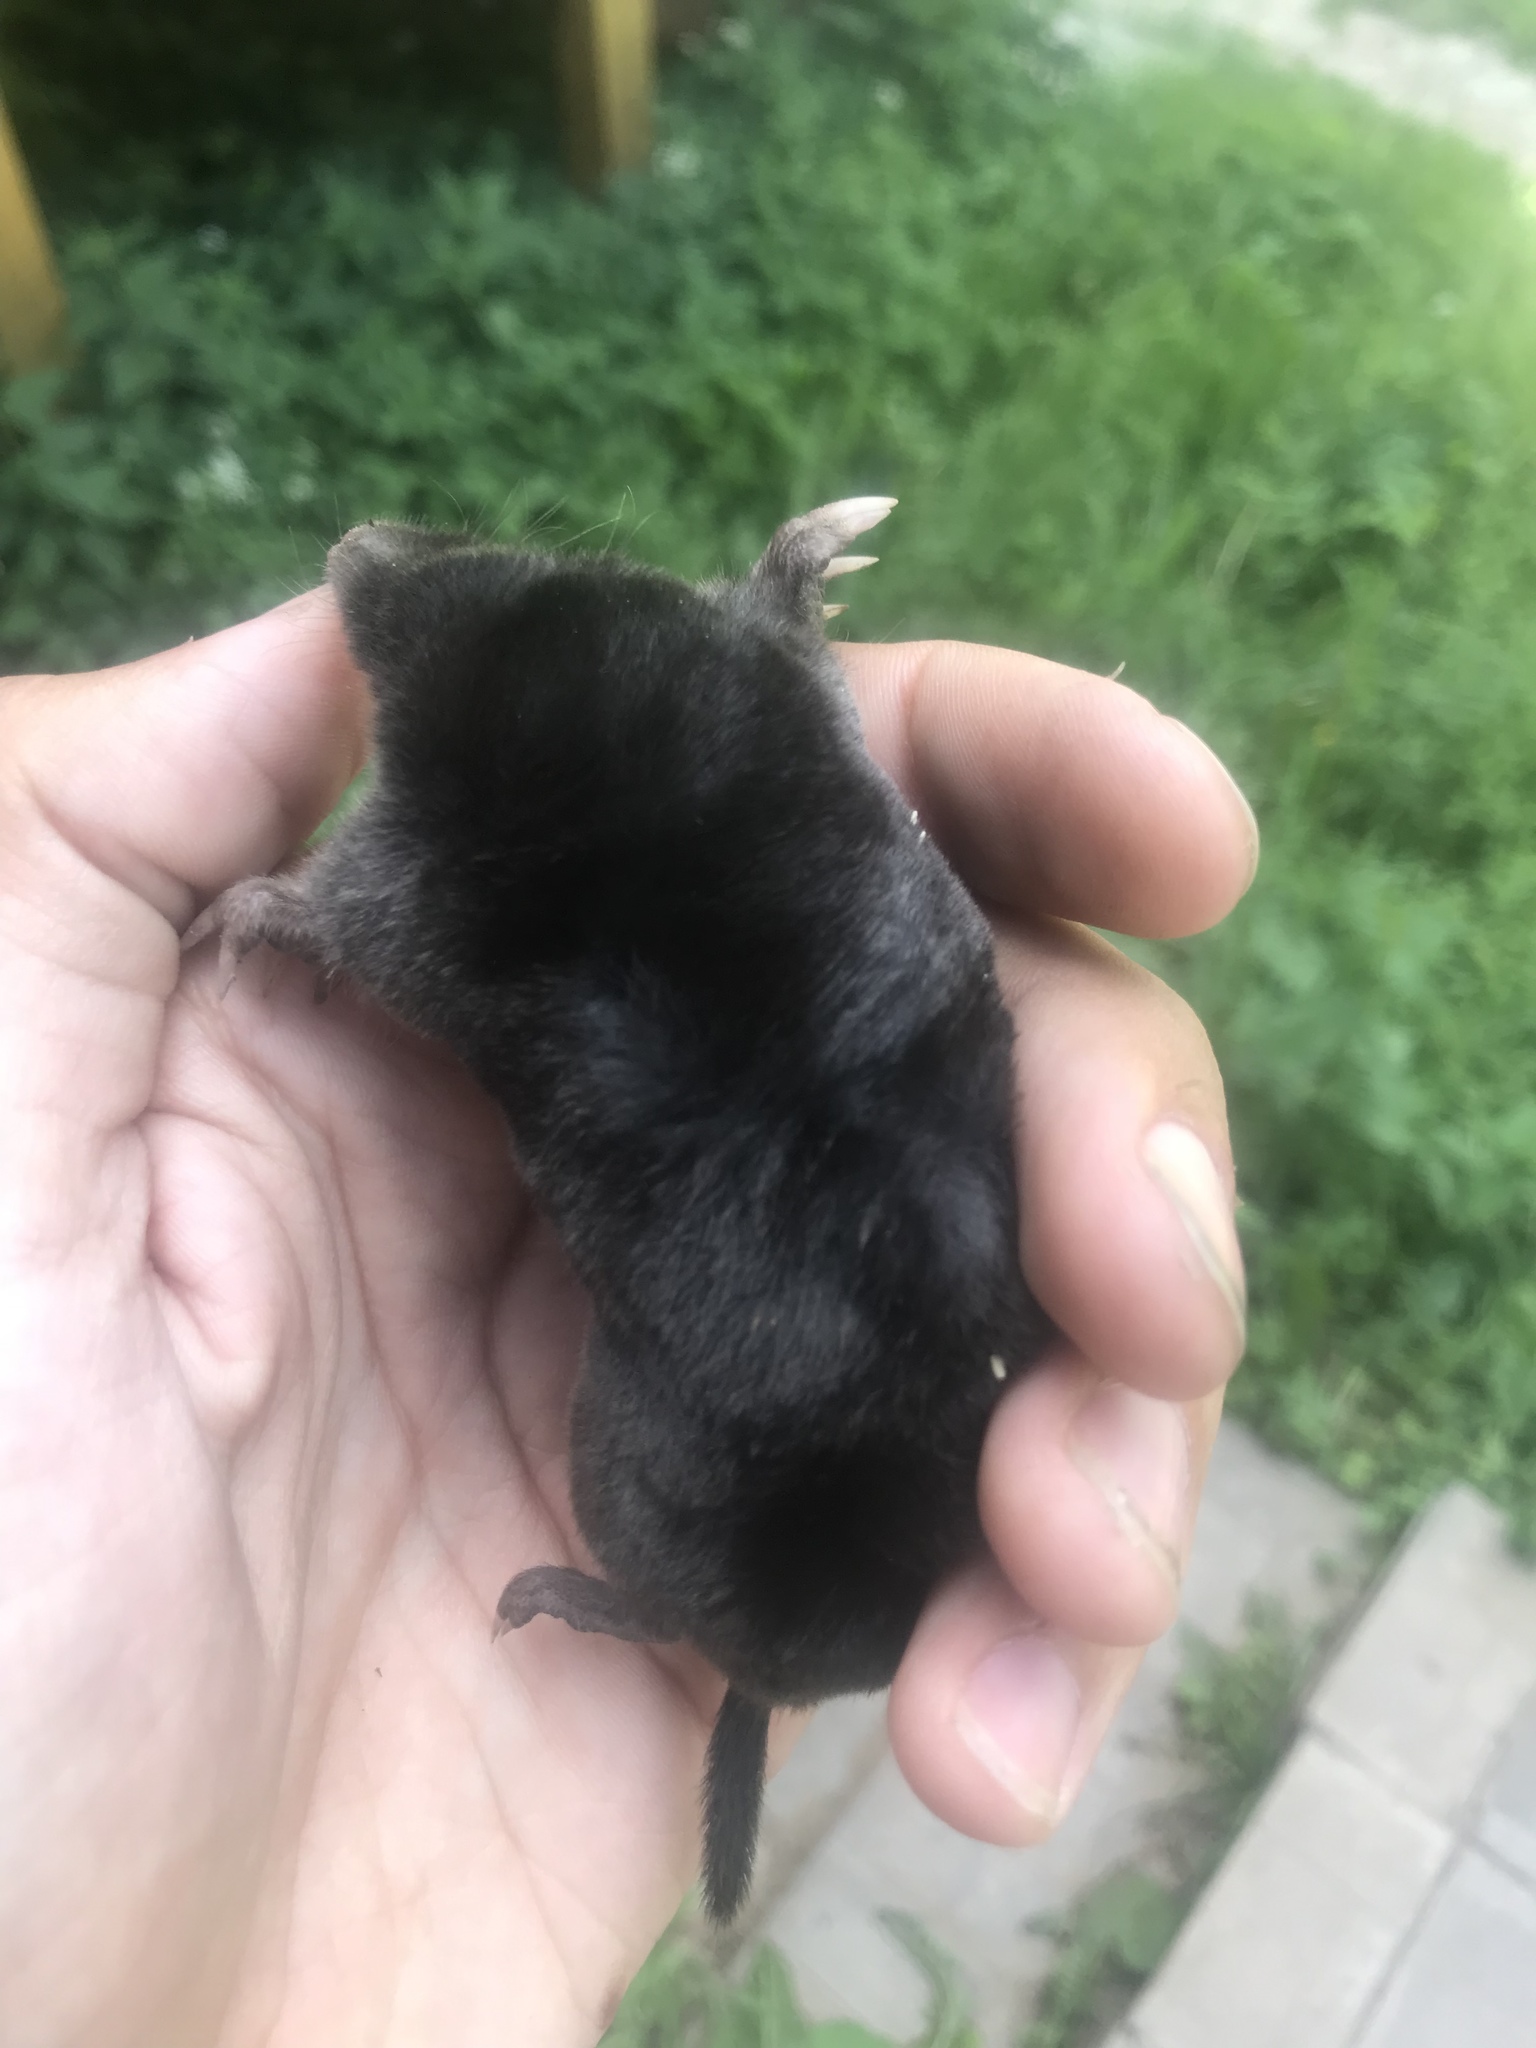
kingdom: Animalia
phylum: Chordata
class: Mammalia
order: Soricomorpha
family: Talpidae
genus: Talpa
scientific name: Talpa europaea
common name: European mole
